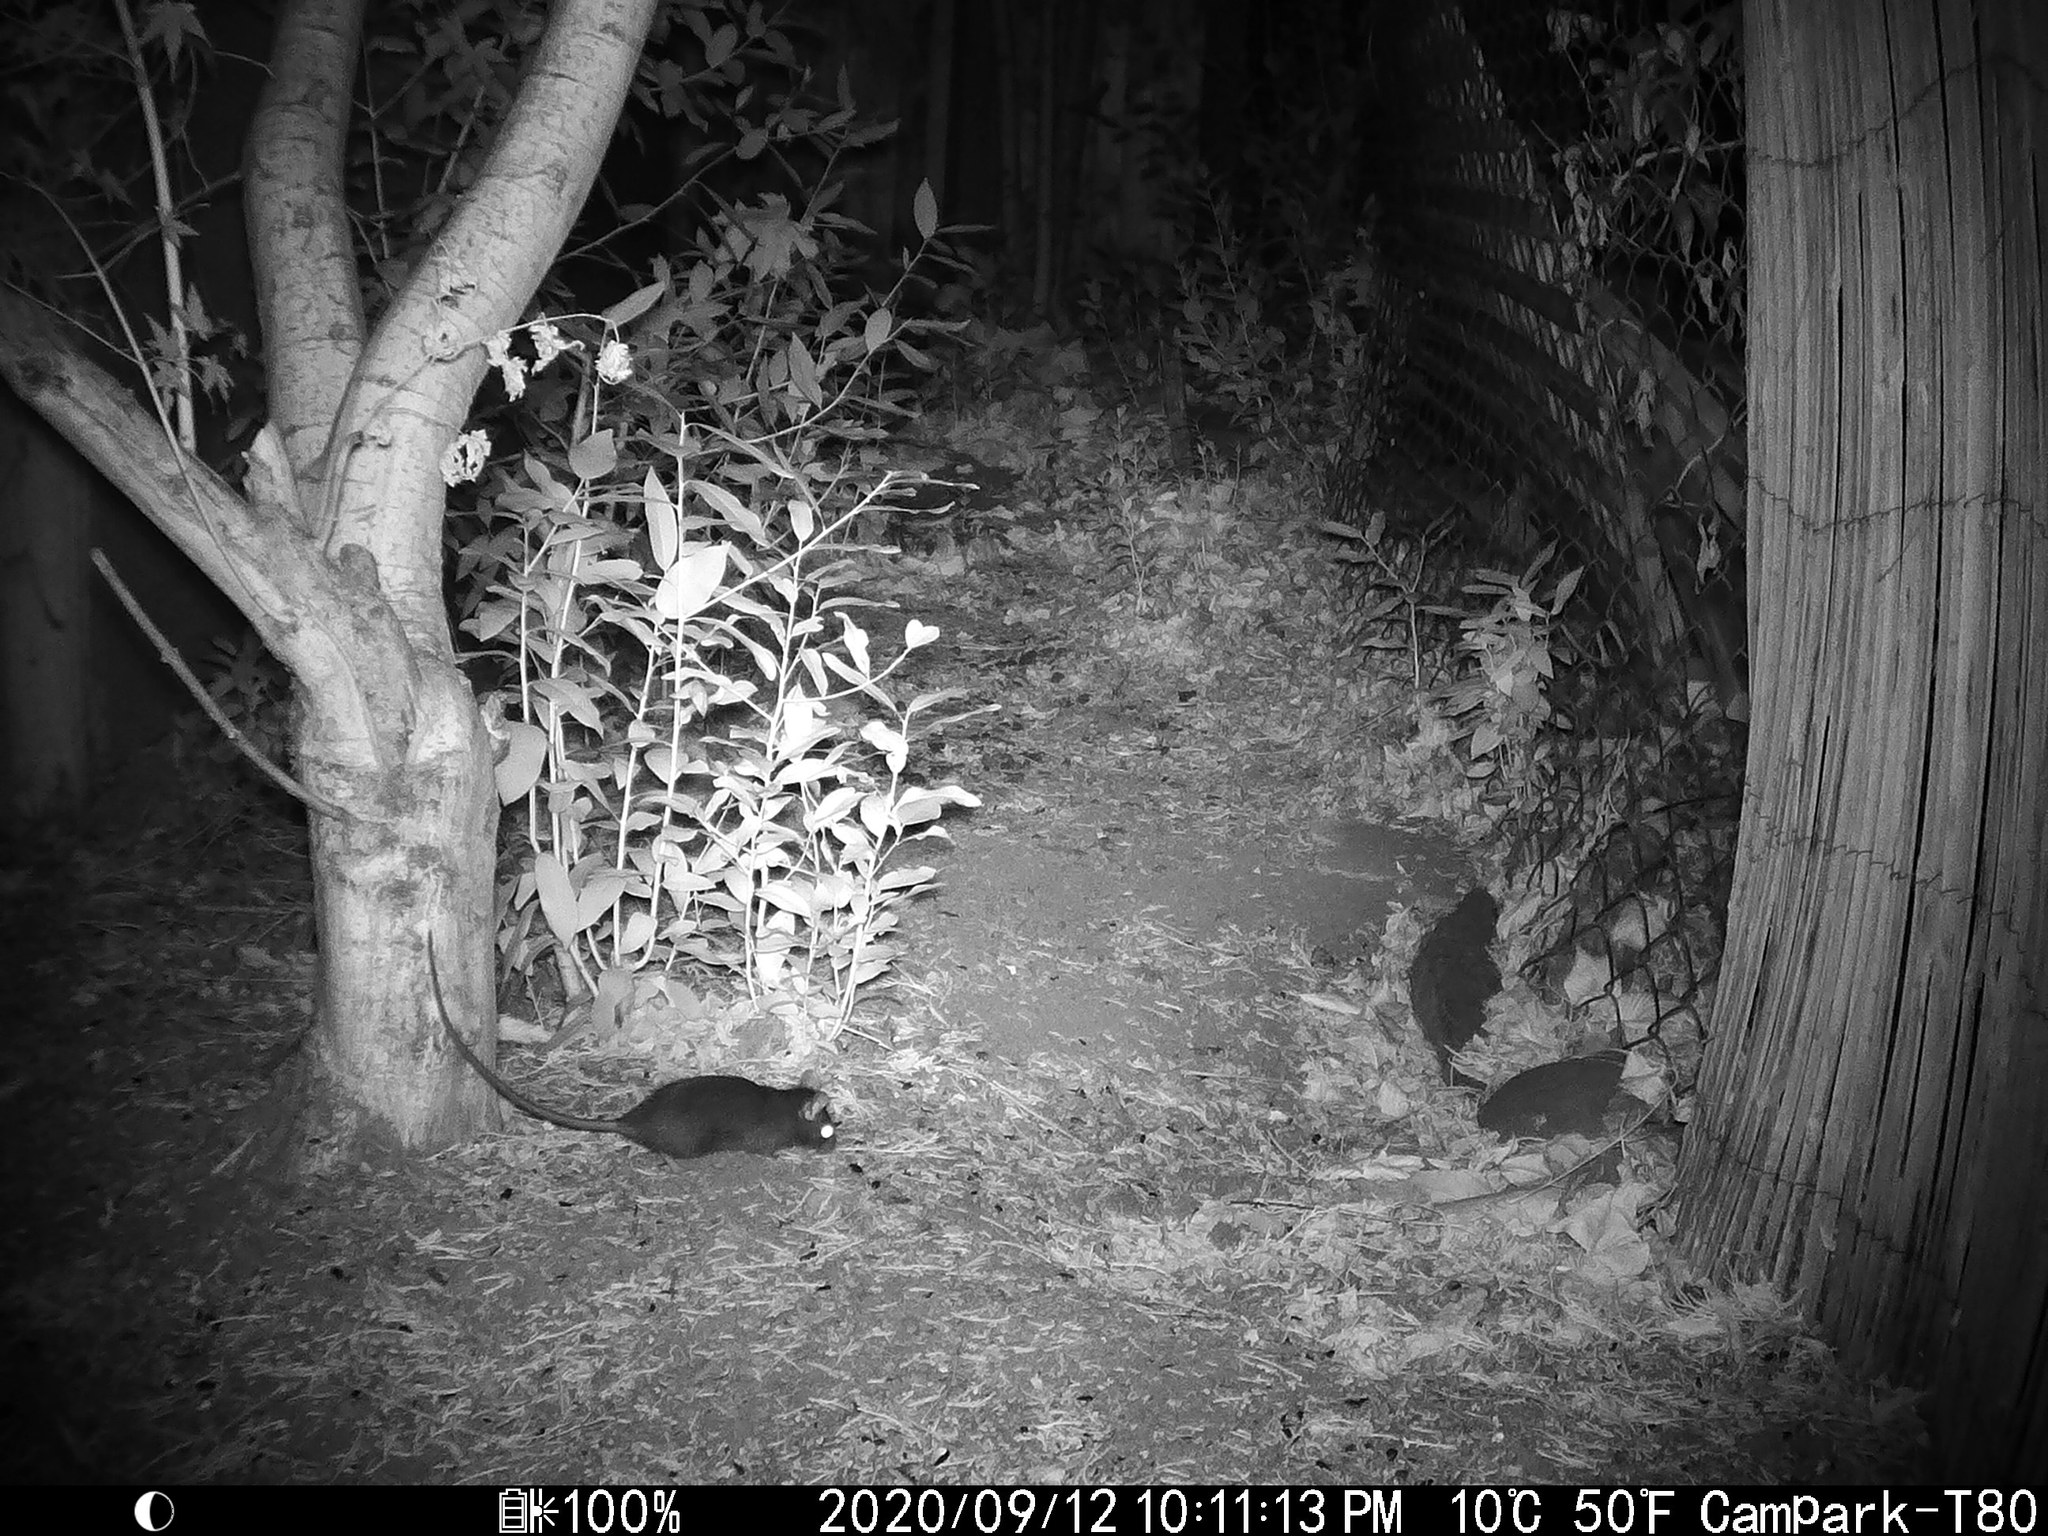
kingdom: Animalia
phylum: Chordata
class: Mammalia
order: Rodentia
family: Muridae
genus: Rattus
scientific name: Rattus rattus
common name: Black rat
